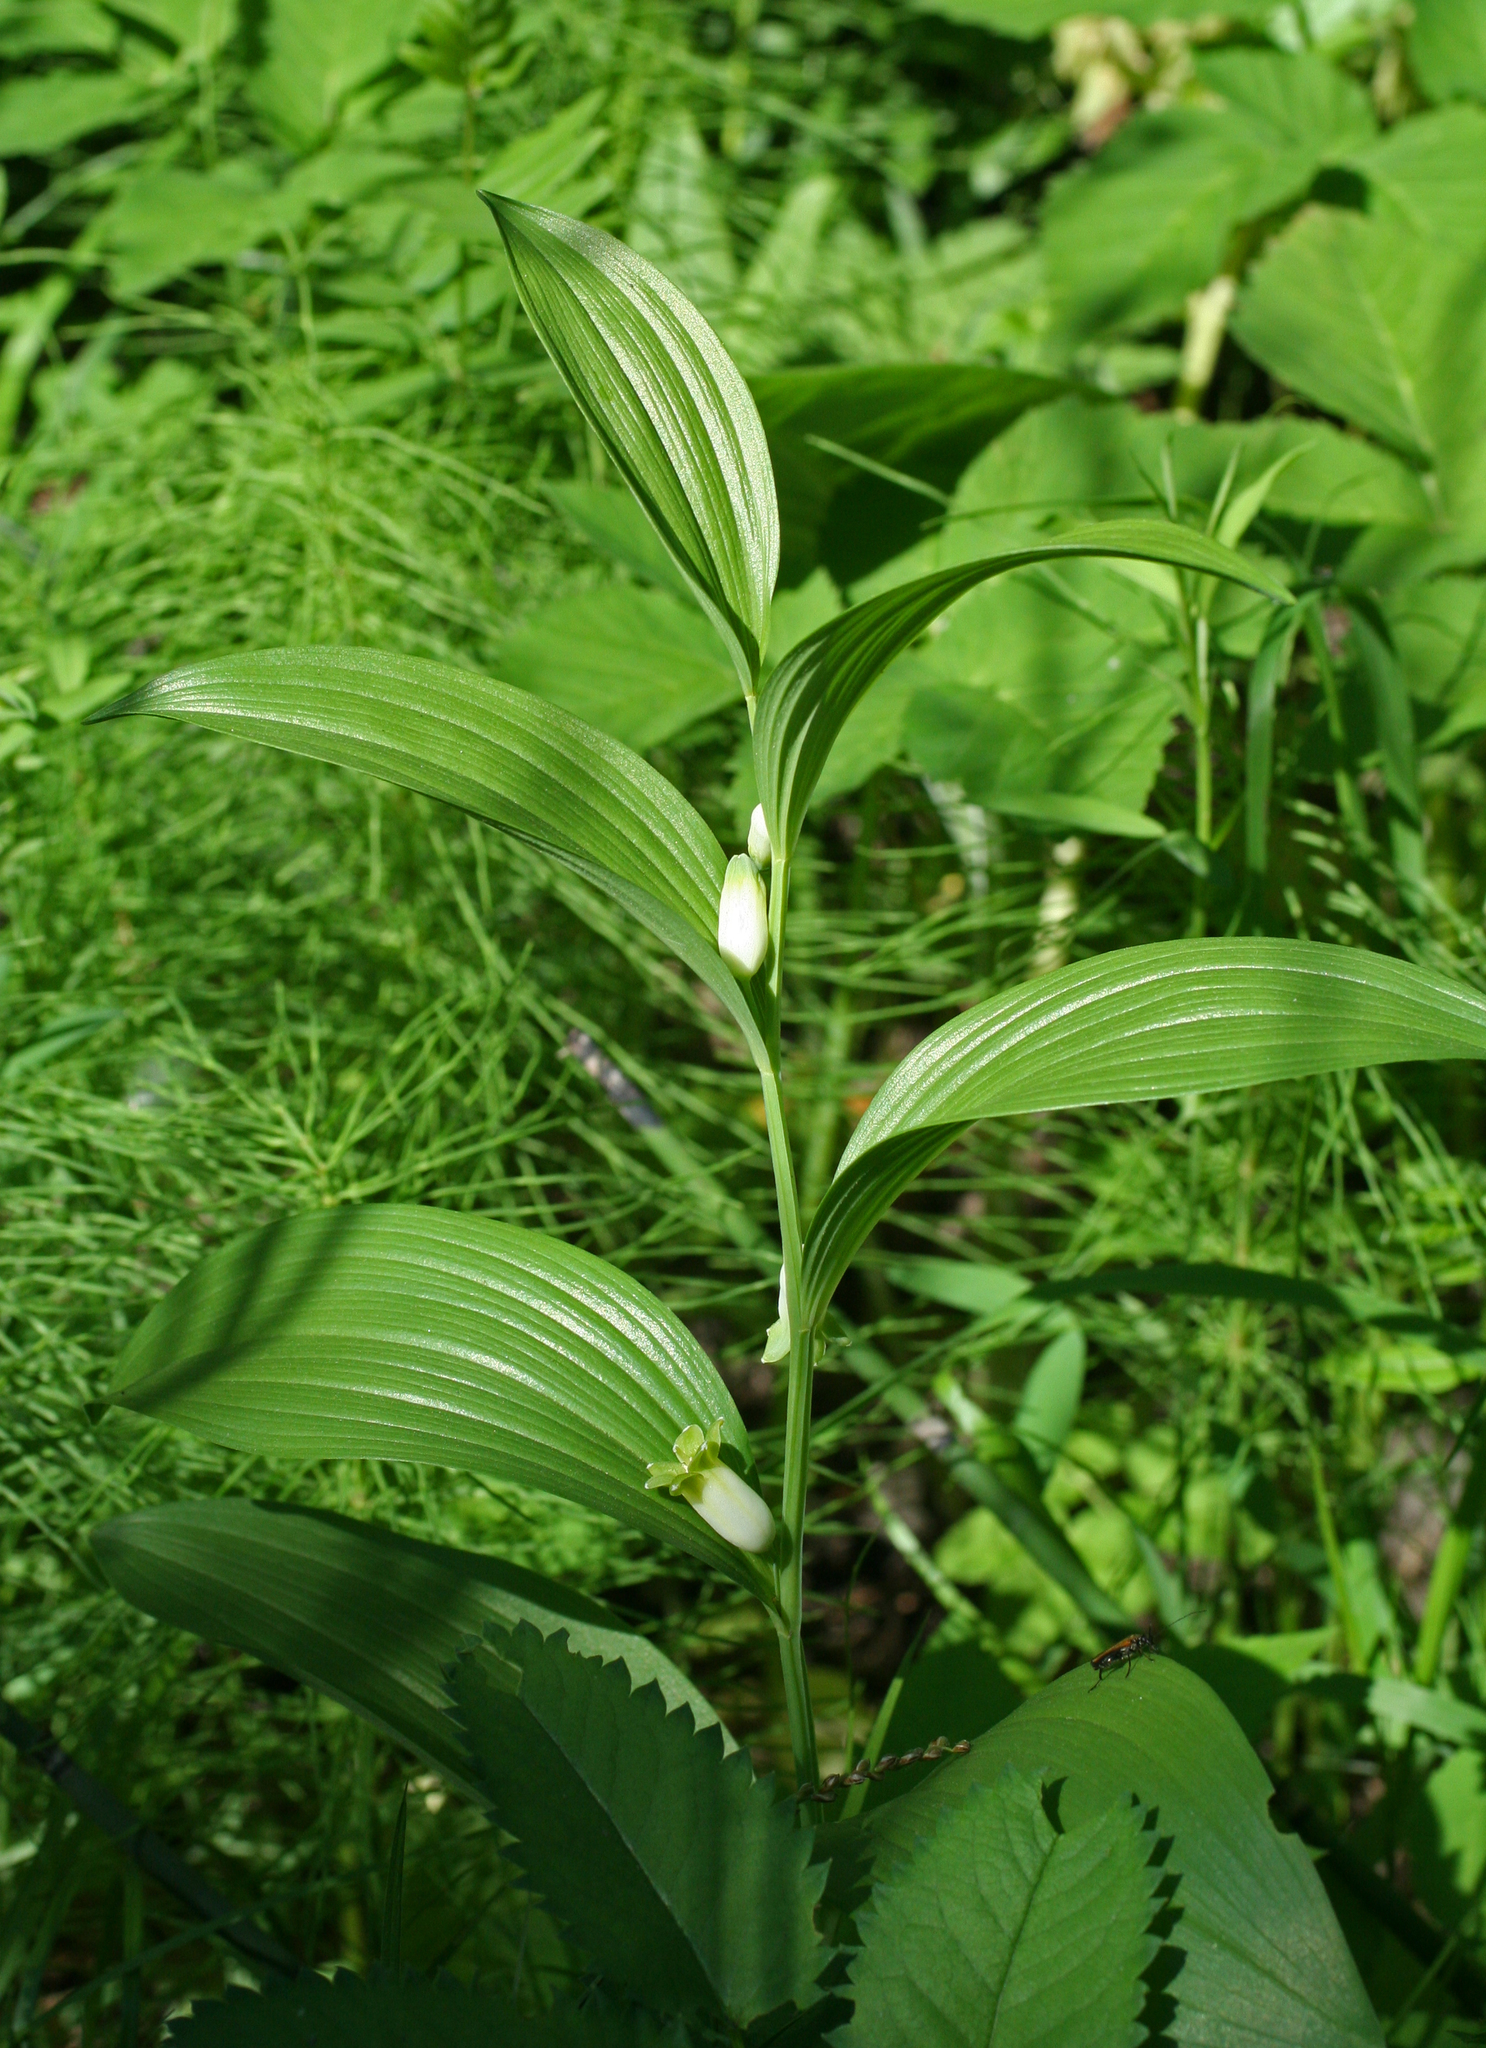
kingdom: Plantae
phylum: Tracheophyta
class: Liliopsida
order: Asparagales
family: Asparagaceae
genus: Polygonatum
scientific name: Polygonatum humile
